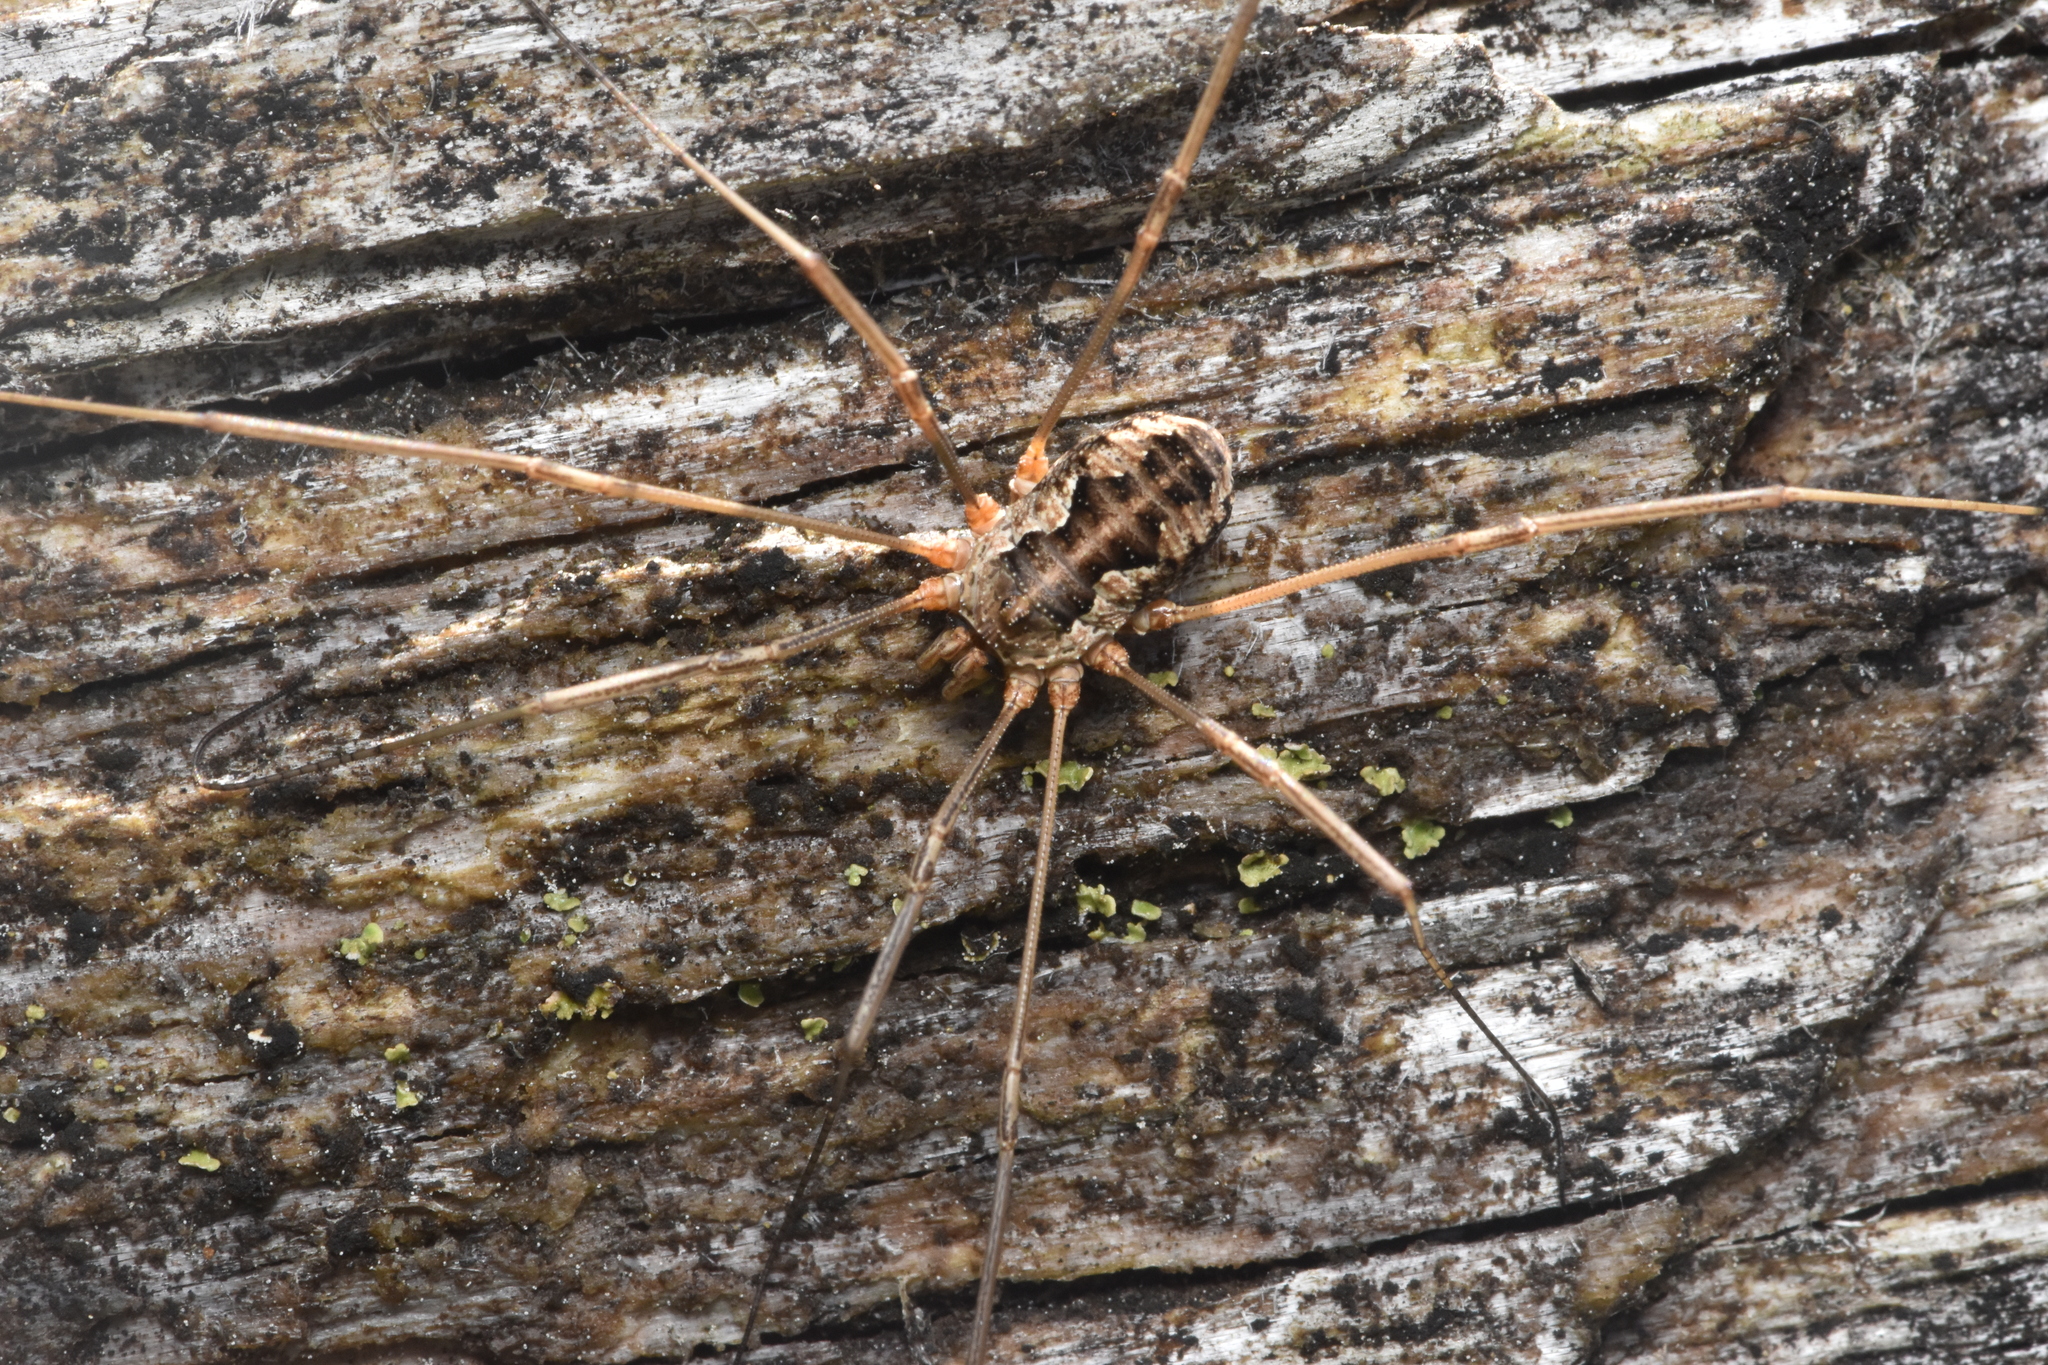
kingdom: Animalia
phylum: Arthropoda
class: Arachnida
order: Opiliones
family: Phalangiidae
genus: Phalangium
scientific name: Phalangium opilio
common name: Daddy longleg
